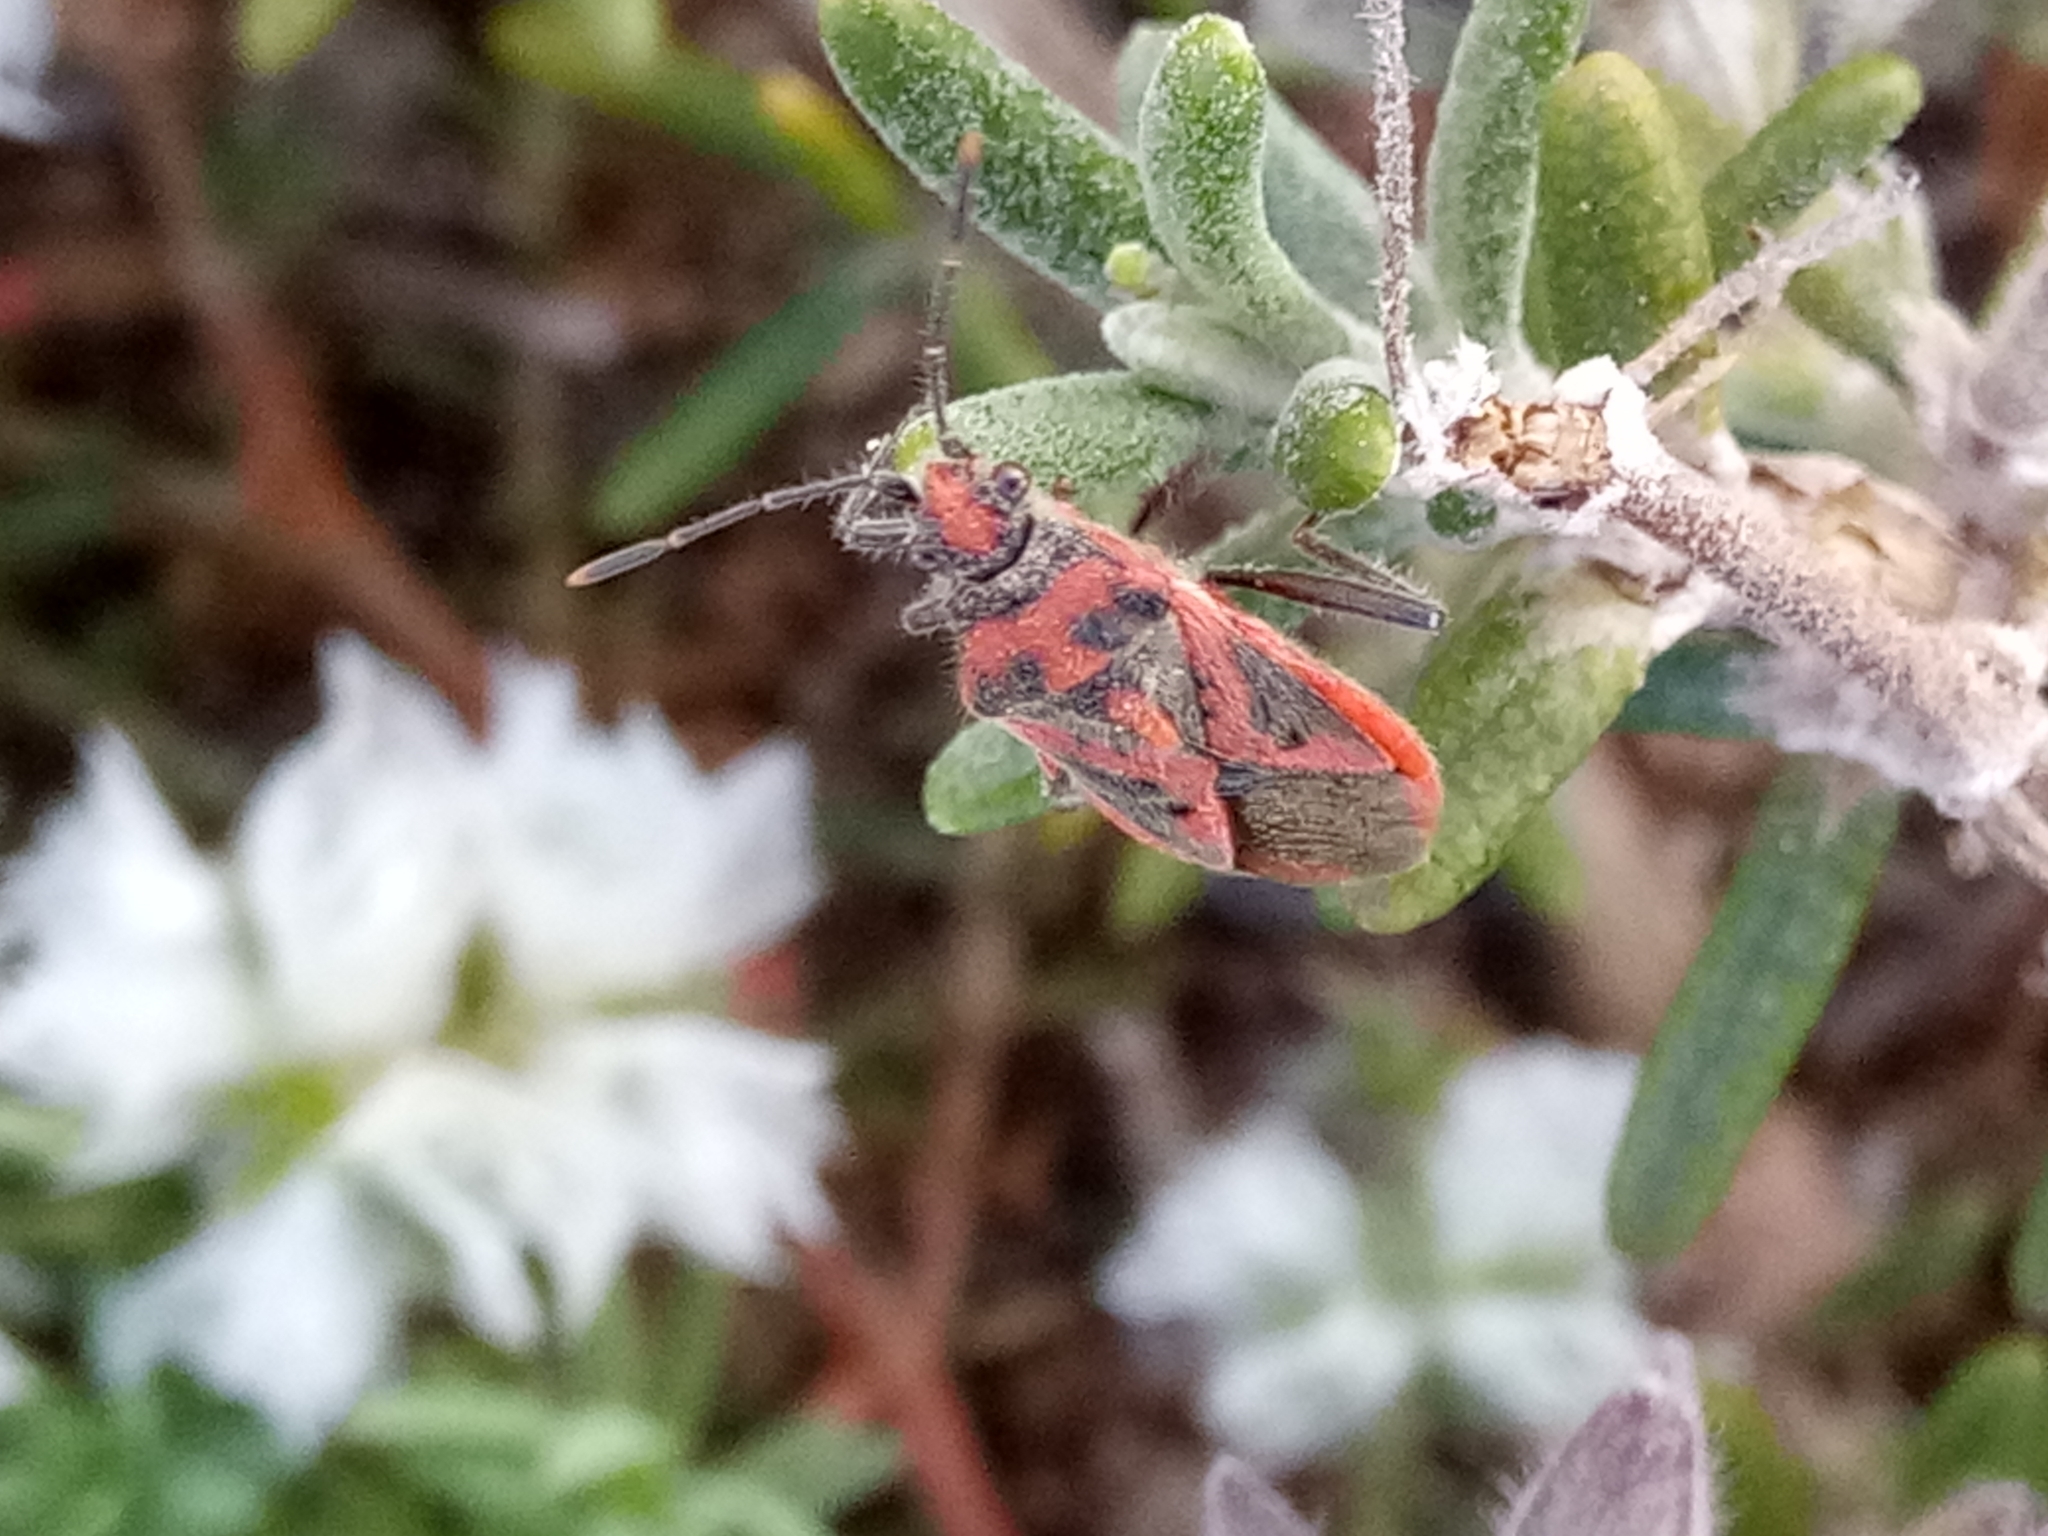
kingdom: Animalia
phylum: Arthropoda
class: Insecta
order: Hemiptera
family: Rhopalidae
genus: Corizus
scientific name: Corizus hyoscyami
